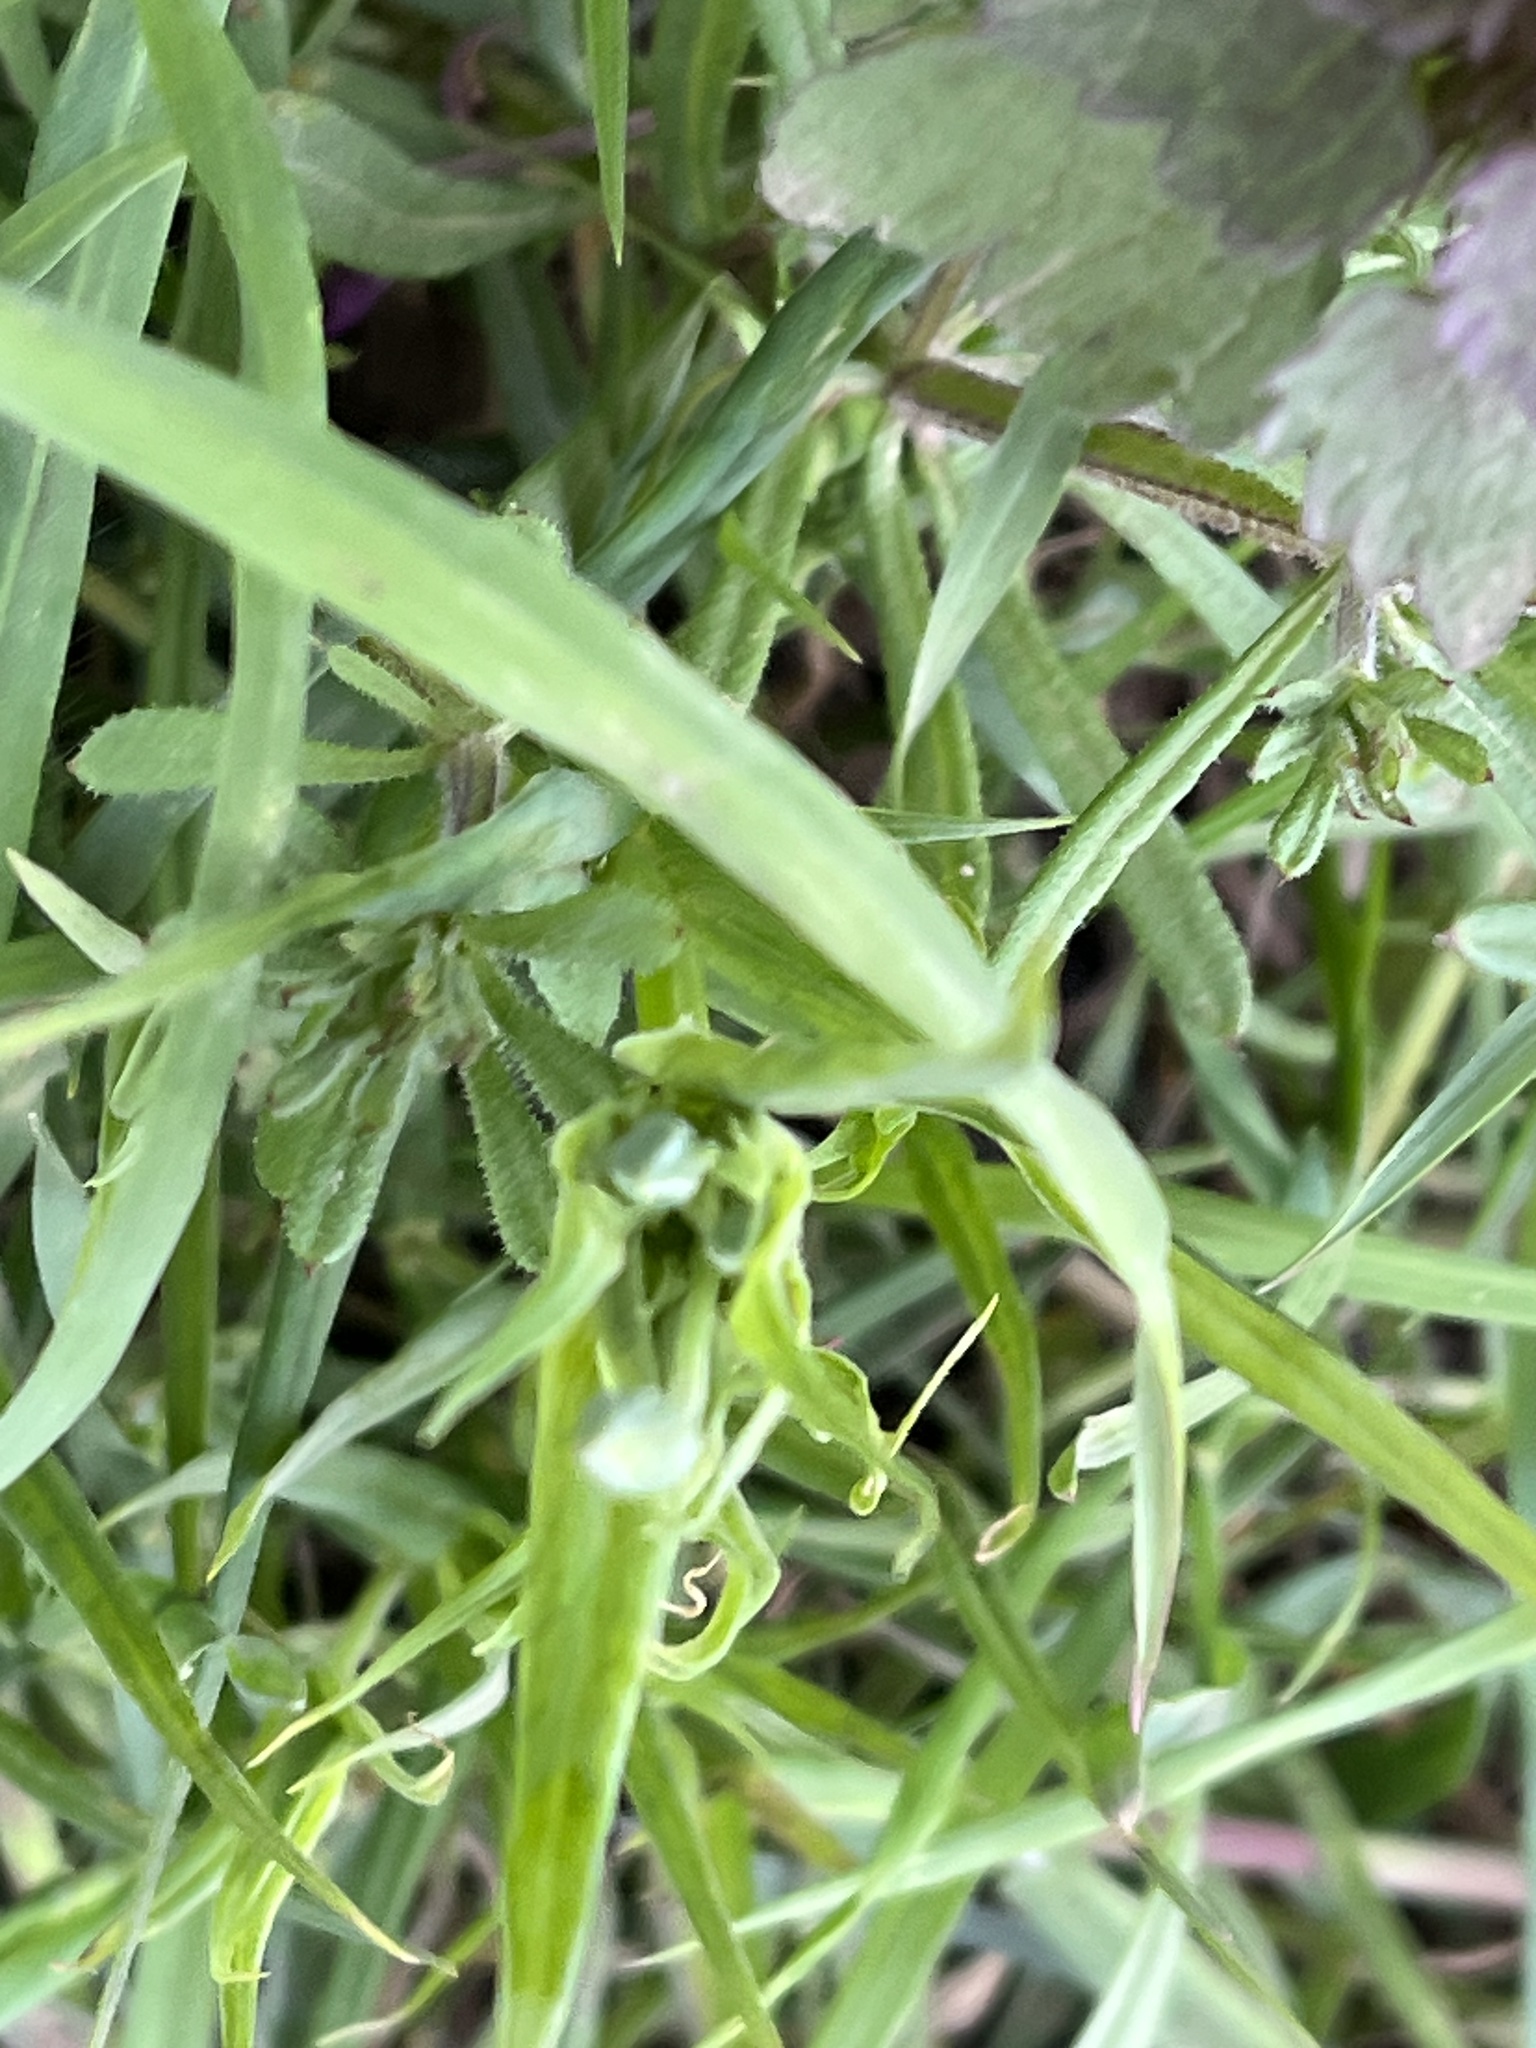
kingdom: Plantae
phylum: Tracheophyta
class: Magnoliopsida
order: Gentianales
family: Rubiaceae
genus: Galium
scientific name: Galium aparine
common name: Cleavers
